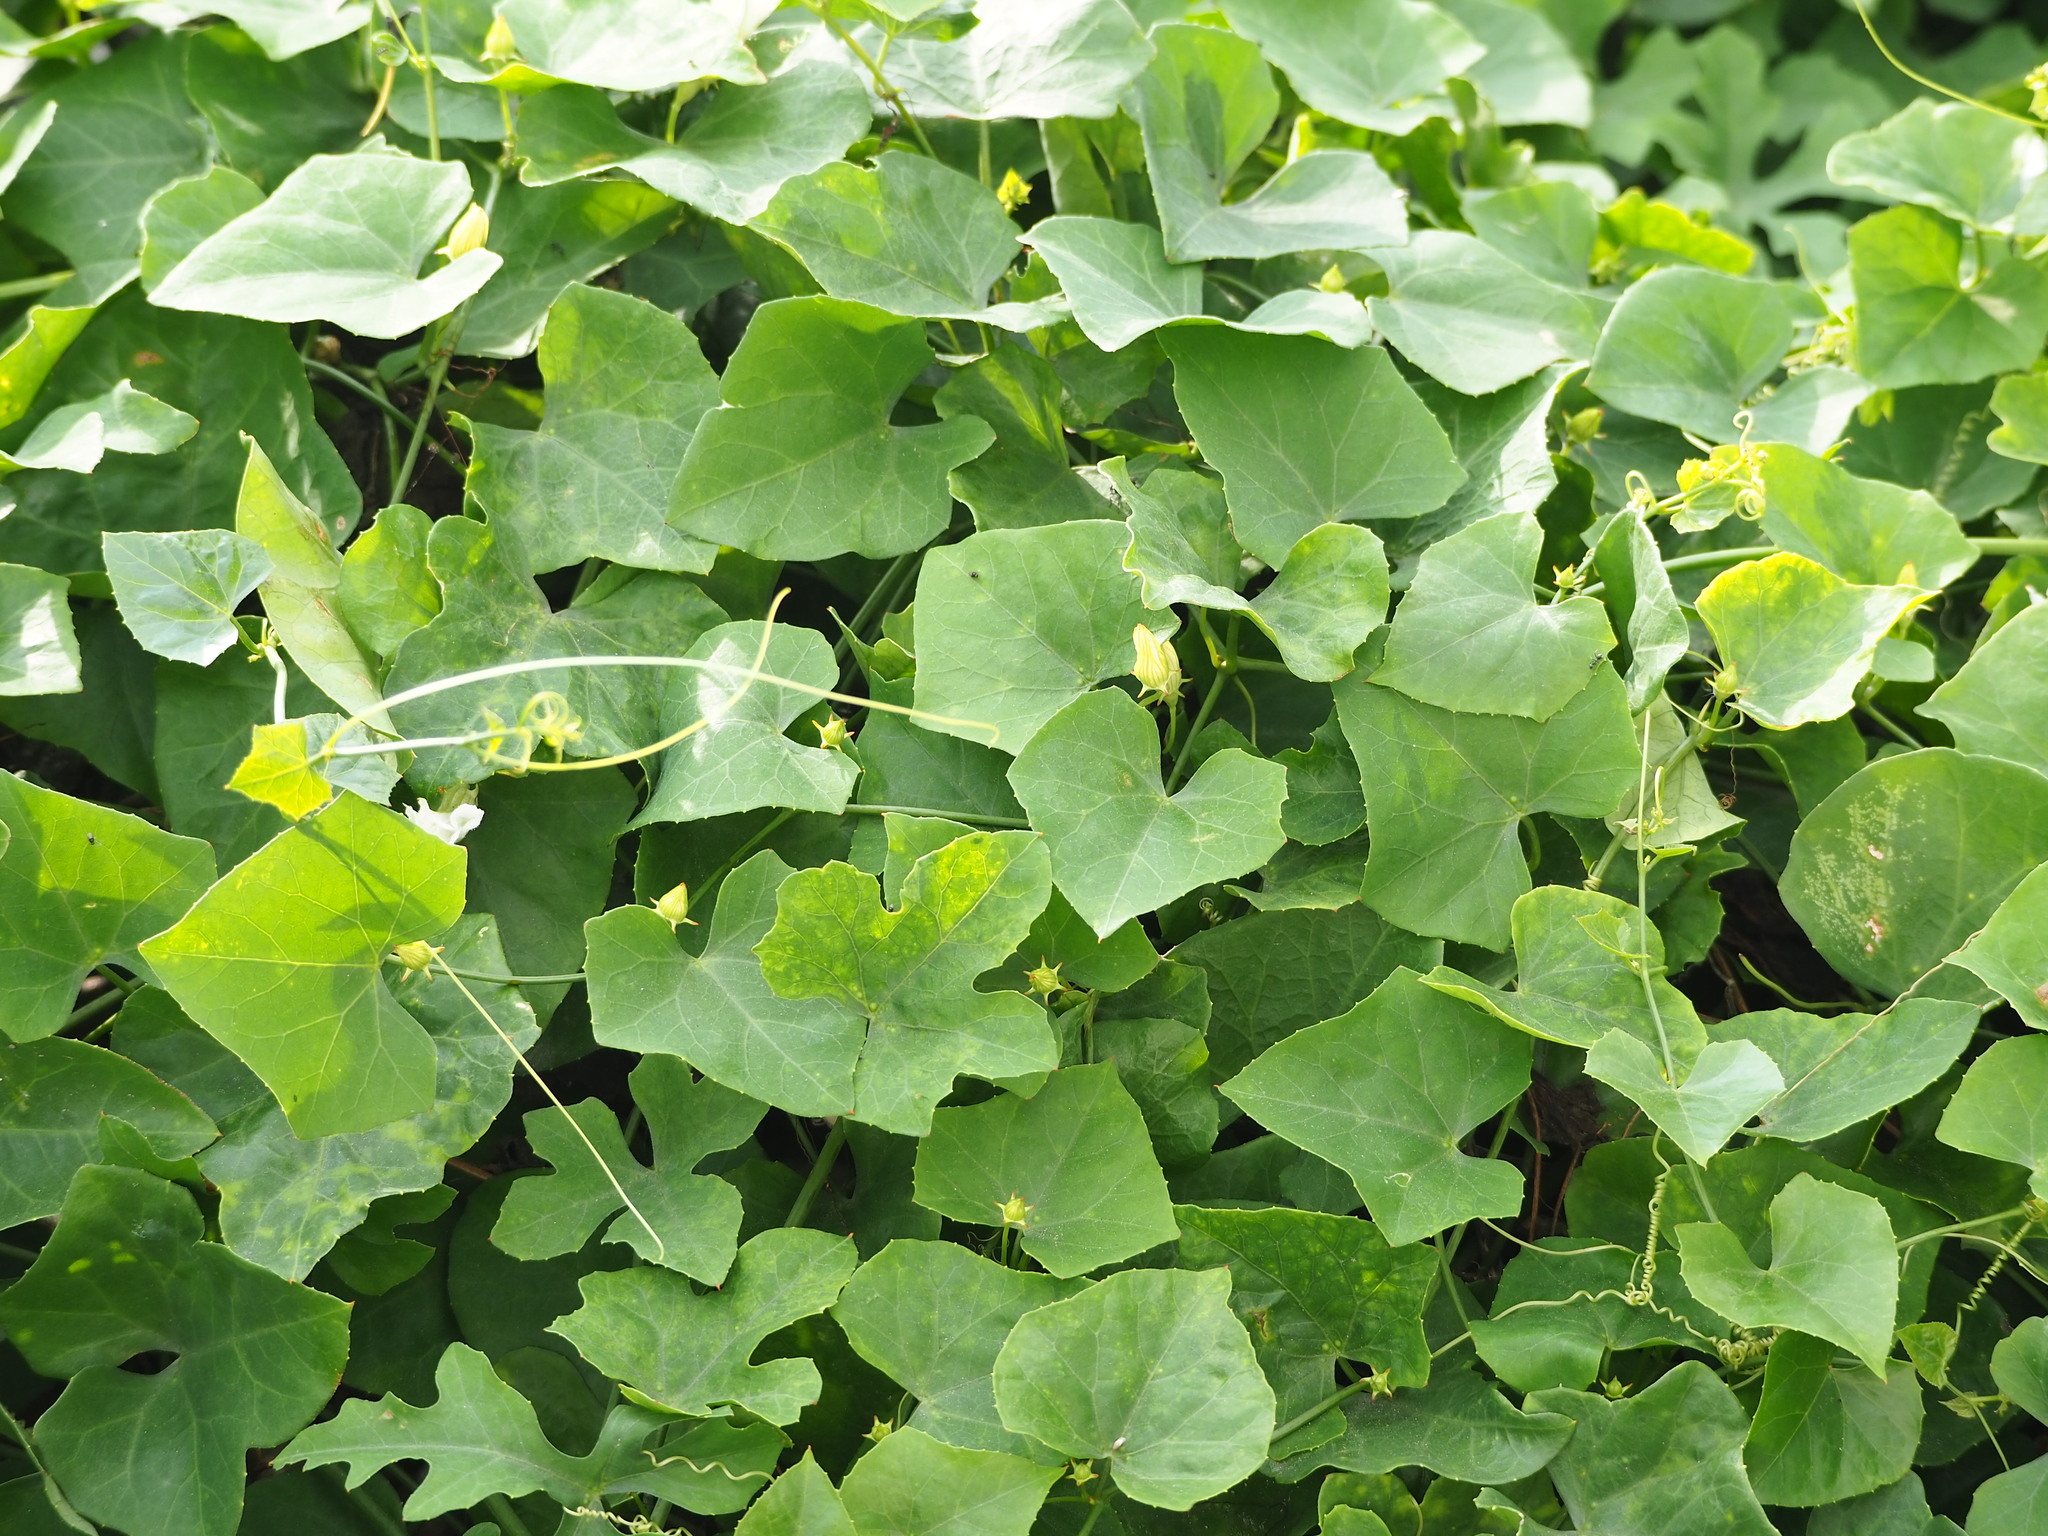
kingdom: Plantae
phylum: Tracheophyta
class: Magnoliopsida
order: Cucurbitales
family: Cucurbitaceae
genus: Coccinia
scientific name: Coccinia grandis
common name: Ivy gourd
